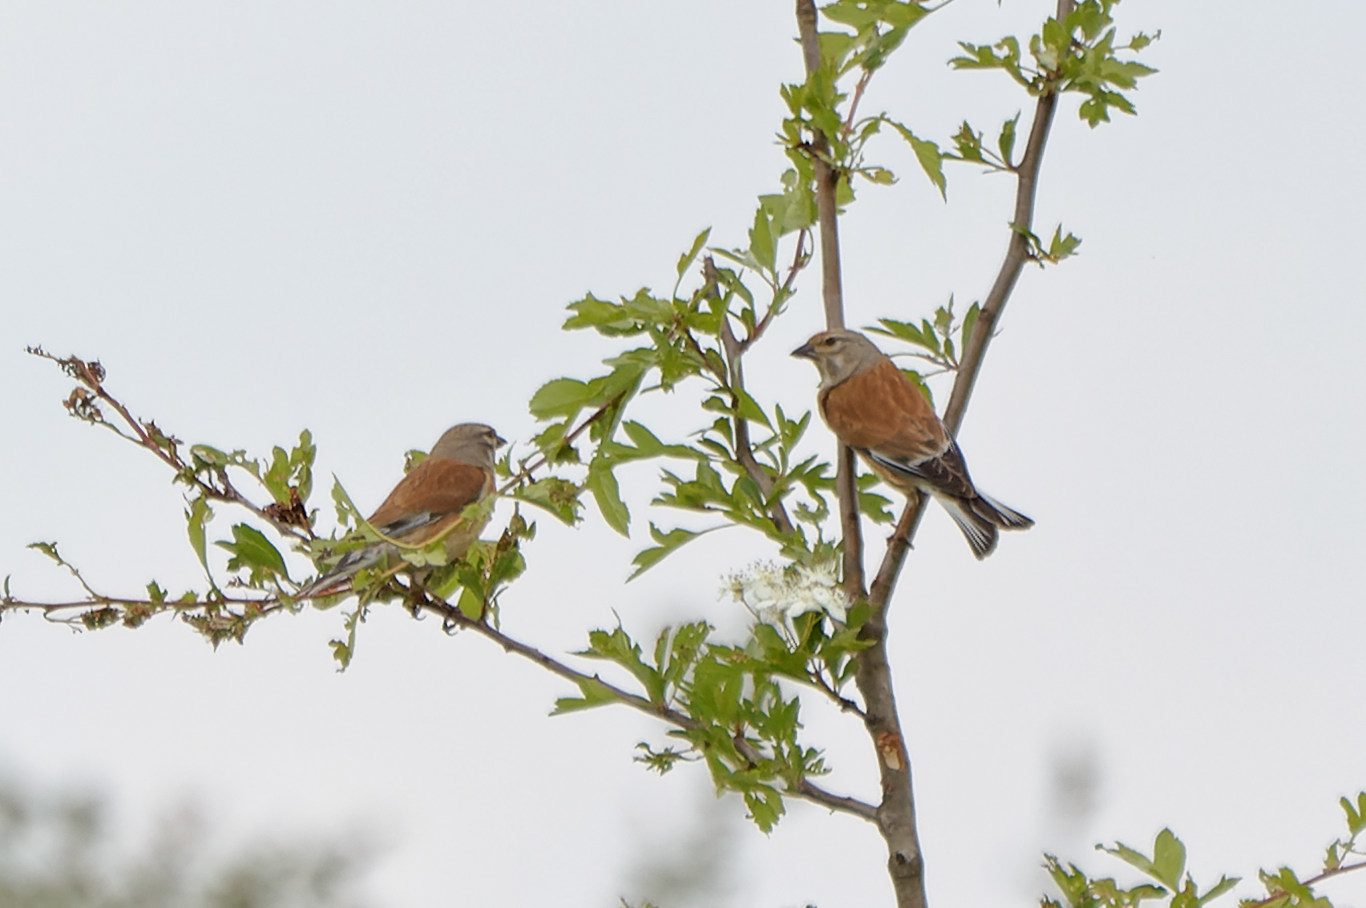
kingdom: Animalia
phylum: Chordata
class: Aves
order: Passeriformes
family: Fringillidae
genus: Linaria
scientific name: Linaria cannabina
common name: Common linnet
